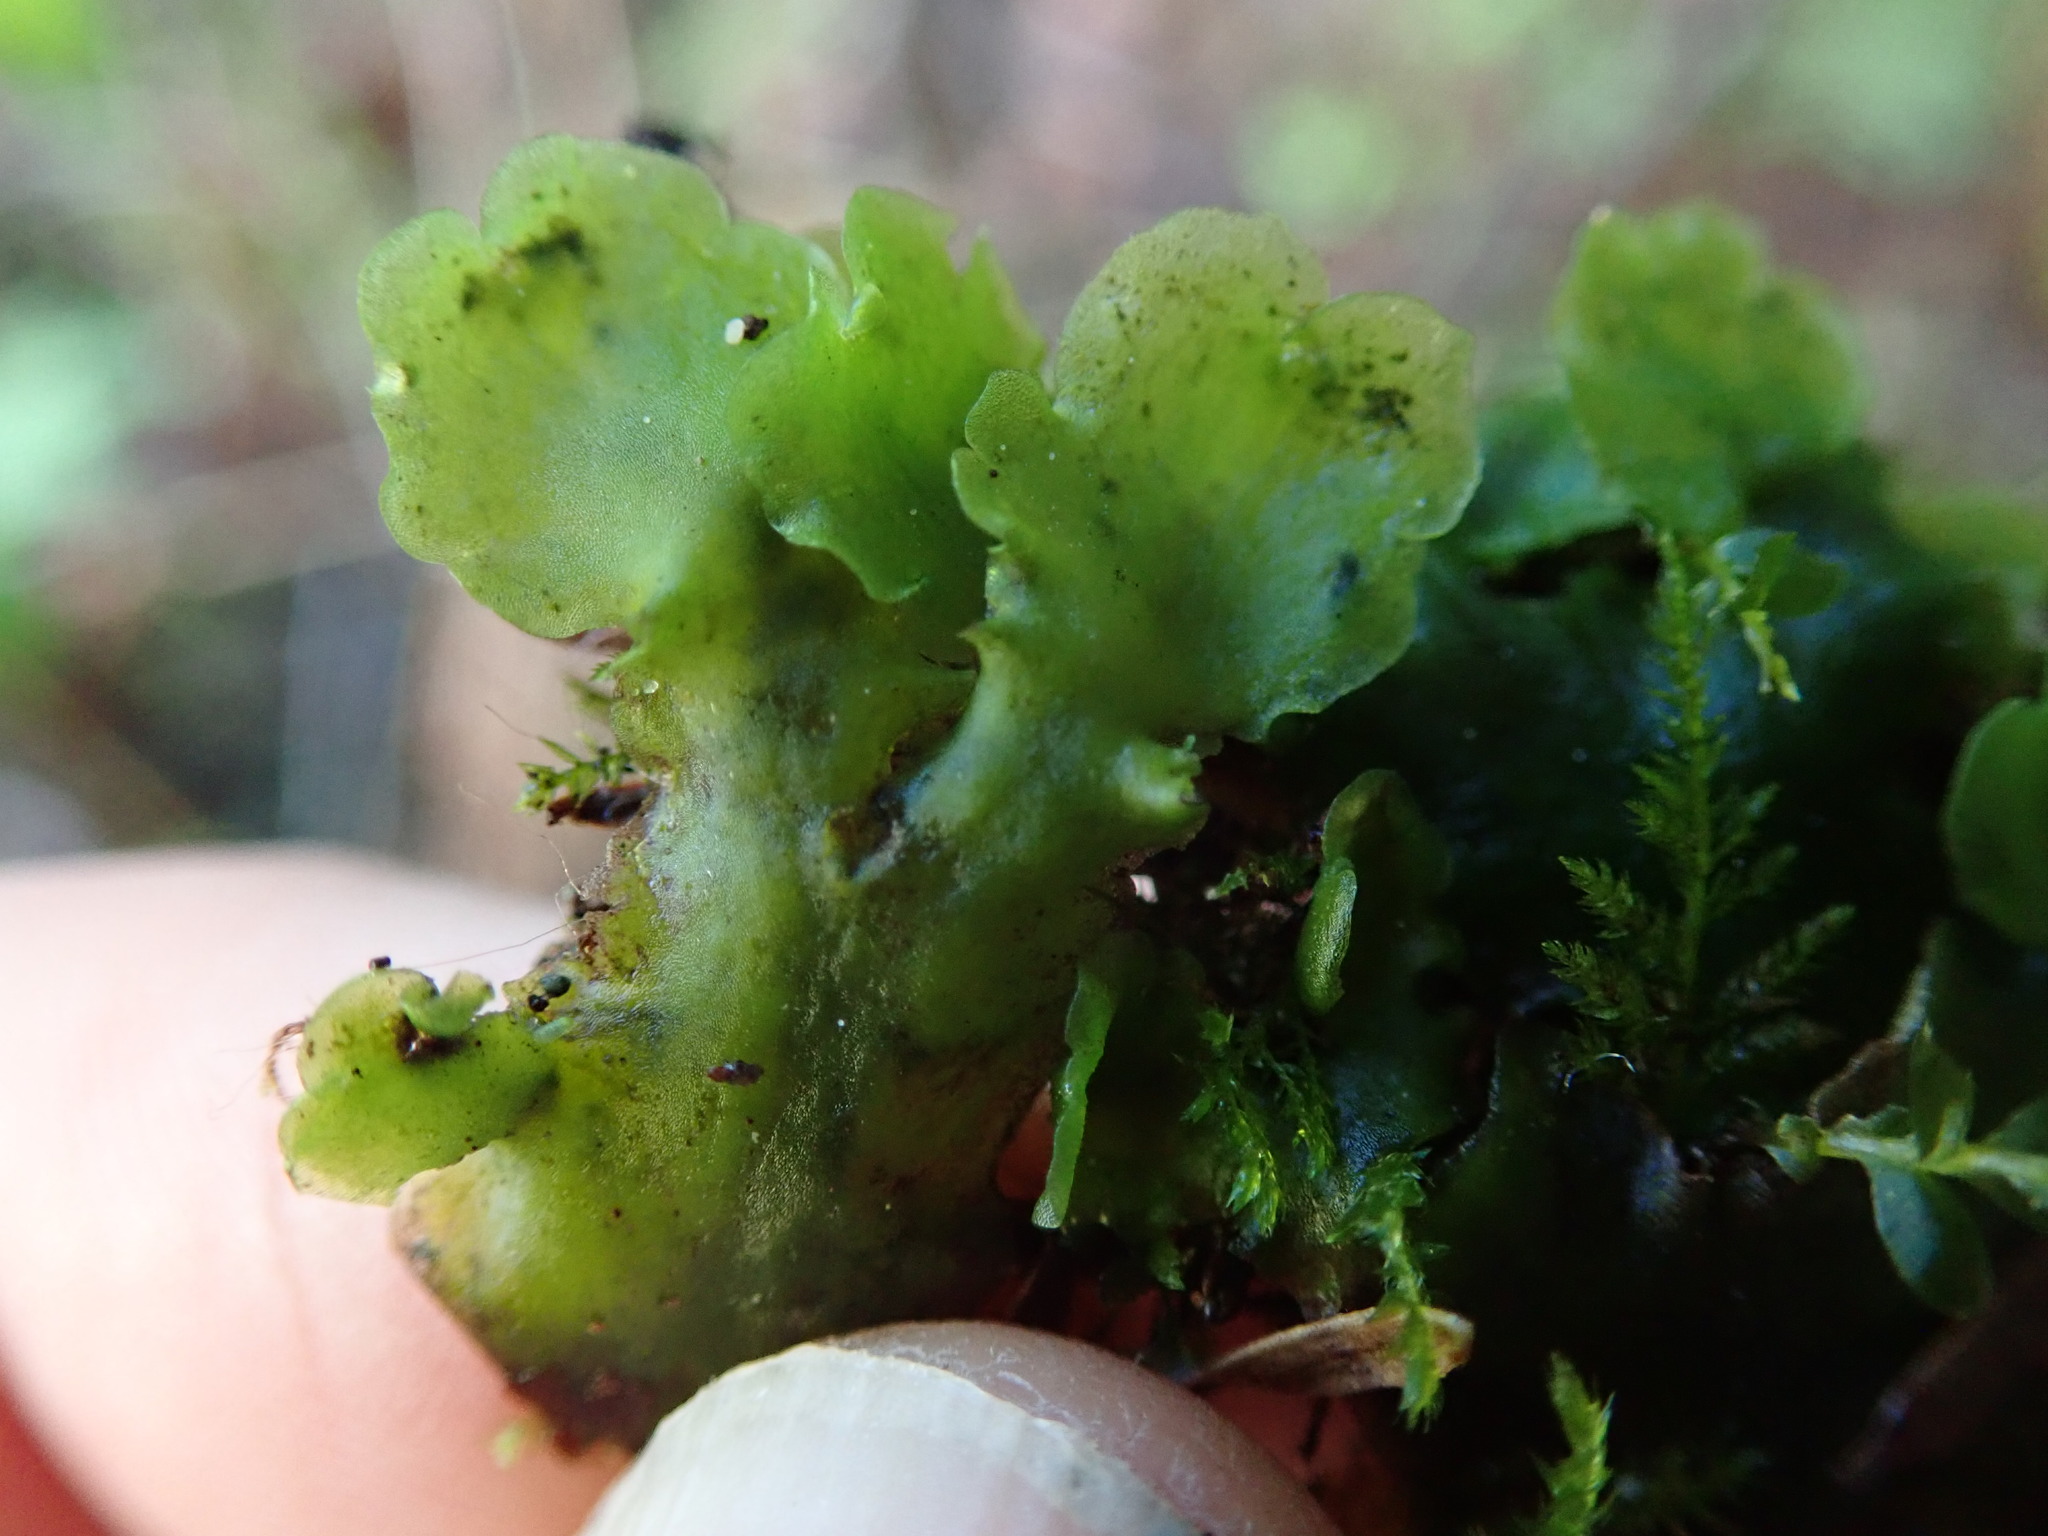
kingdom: Plantae
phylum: Marchantiophyta
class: Jungermanniopsida
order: Pelliales
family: Pelliaceae
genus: Pellia
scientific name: Pellia neesiana
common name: Nees  pellia
